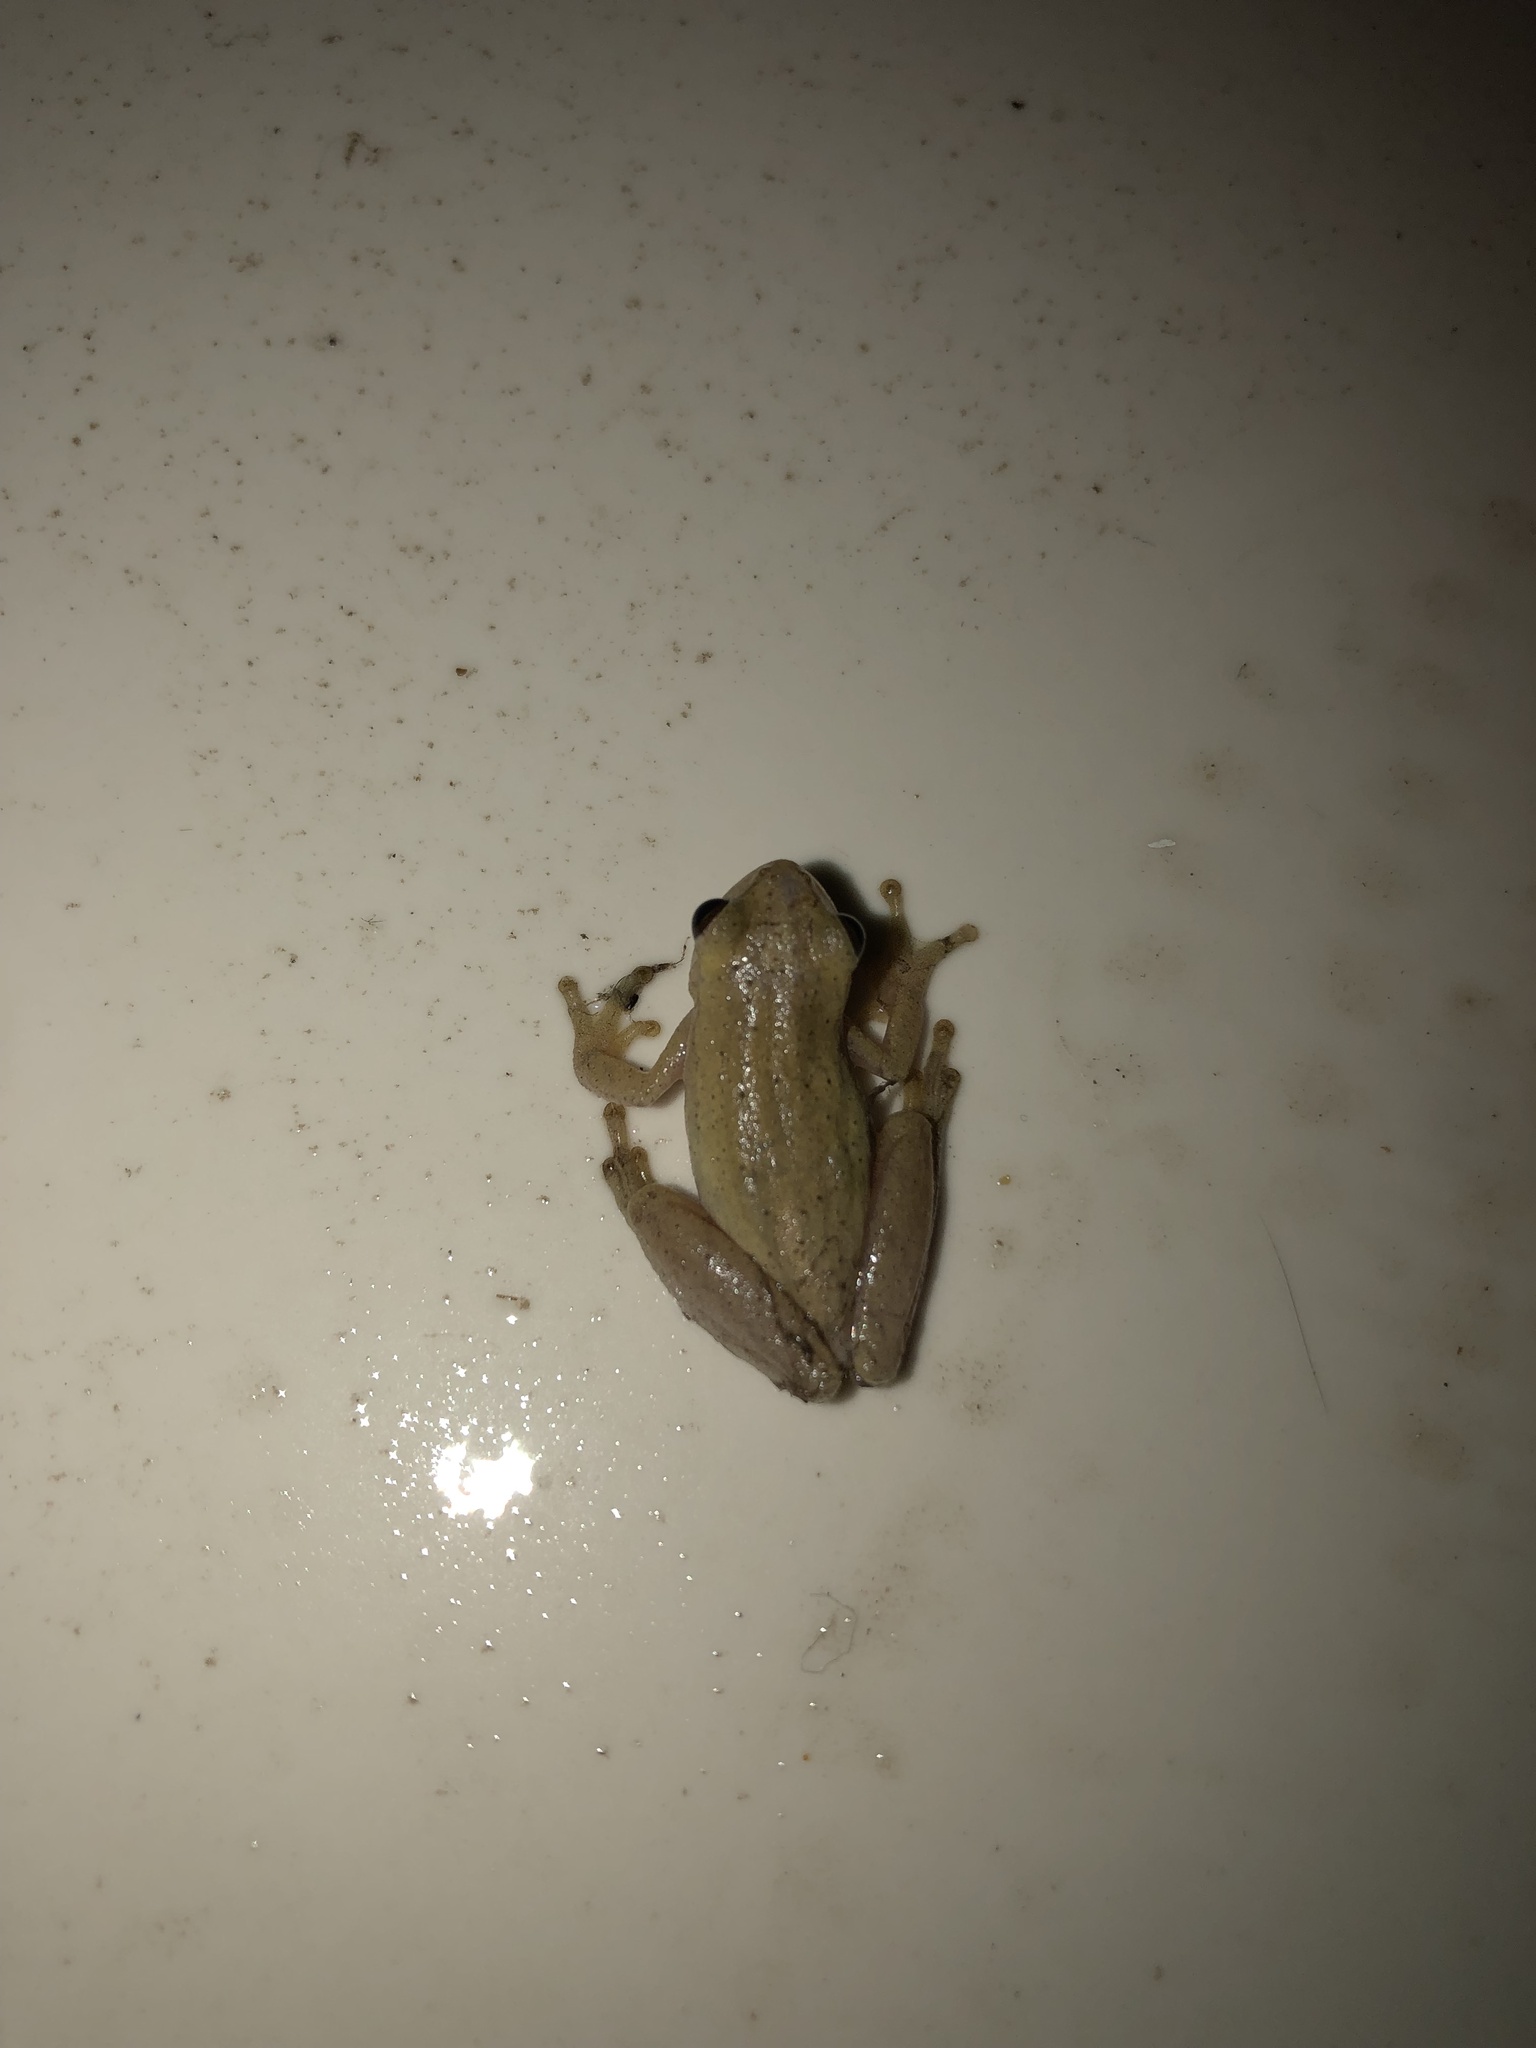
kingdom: Animalia
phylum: Chordata
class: Amphibia
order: Anura
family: Hylidae
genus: Dendropsophus
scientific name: Dendropsophus sanborni
